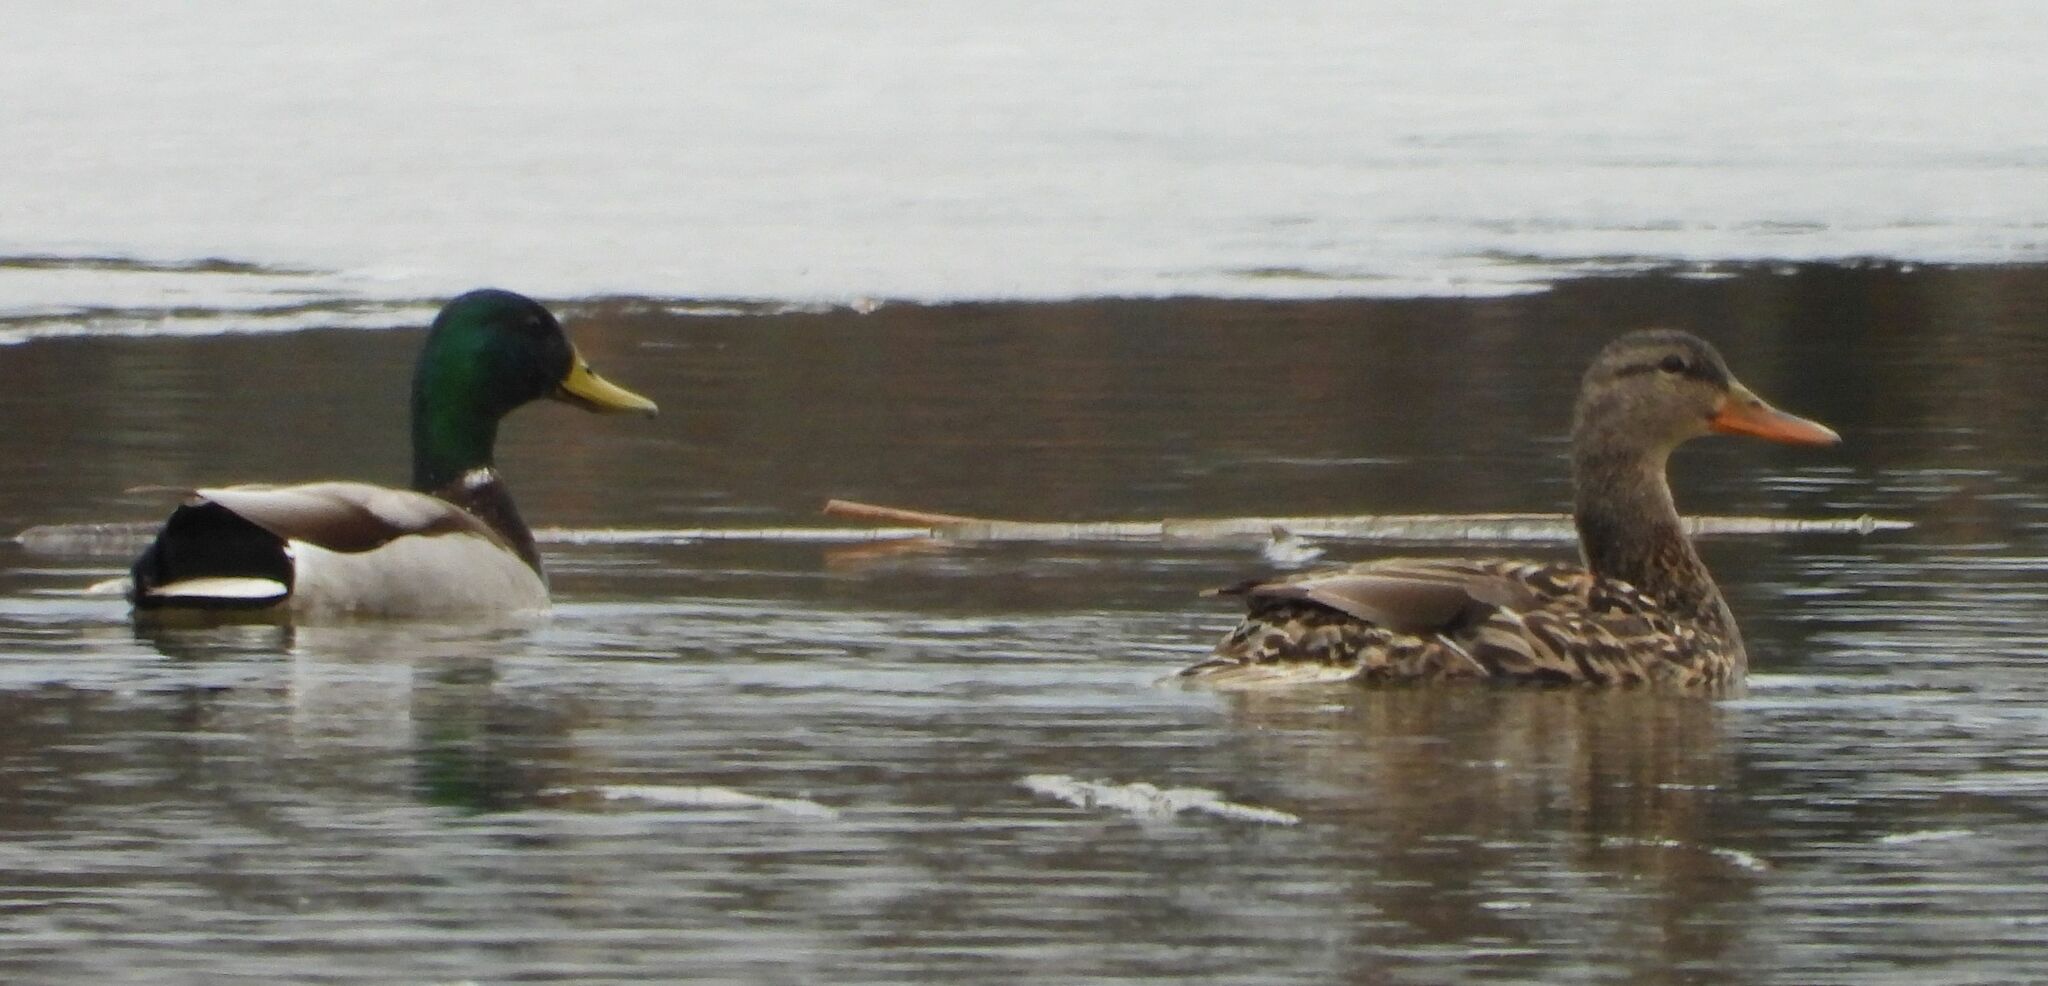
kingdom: Animalia
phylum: Chordata
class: Aves
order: Anseriformes
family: Anatidae
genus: Anas
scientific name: Anas platyrhynchos
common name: Mallard
